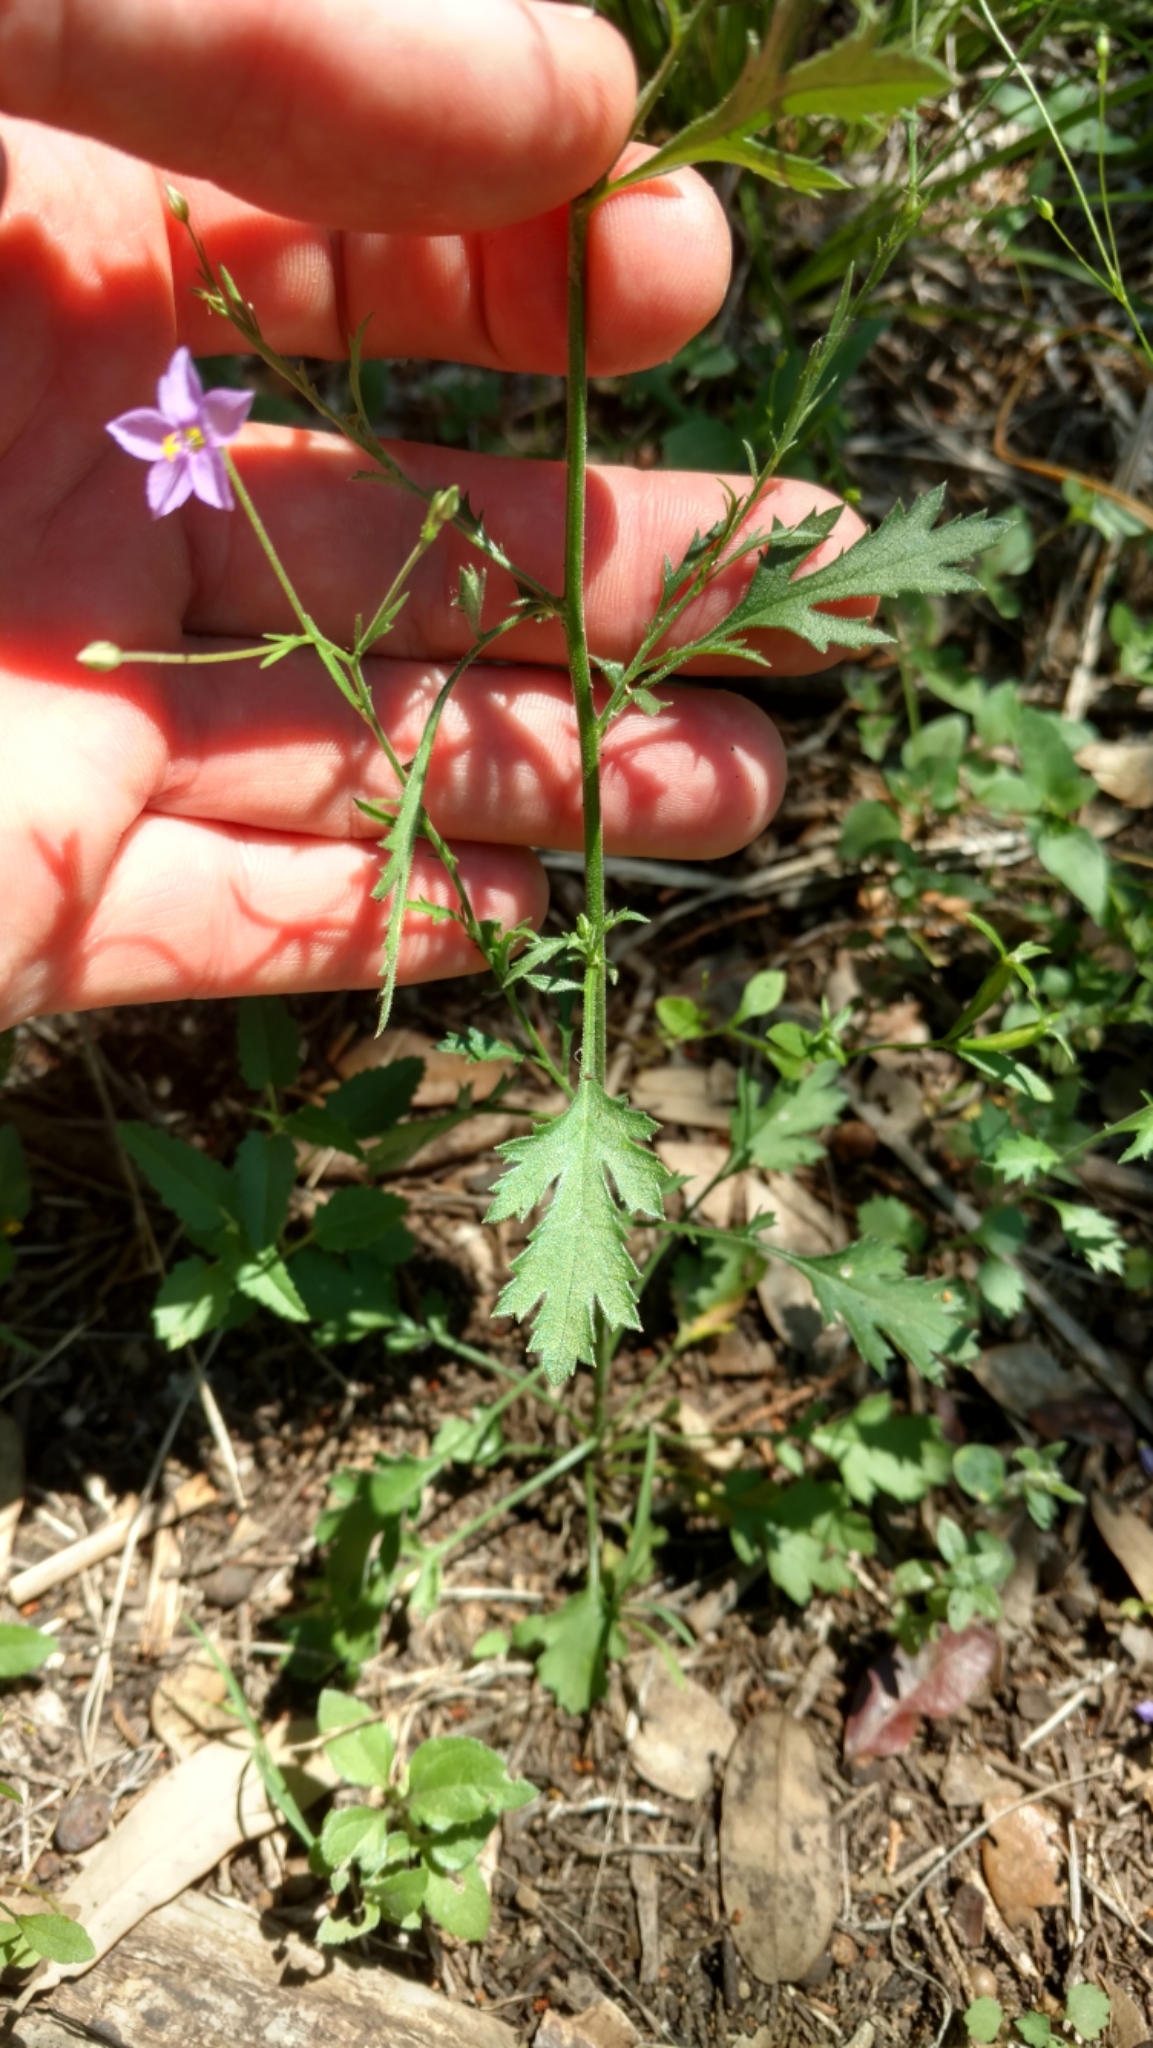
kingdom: Plantae
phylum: Tracheophyta
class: Magnoliopsida
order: Ericales
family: Polemoniaceae
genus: Giliastrum
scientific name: Giliastrum incisum
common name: Splitleaf gilia
